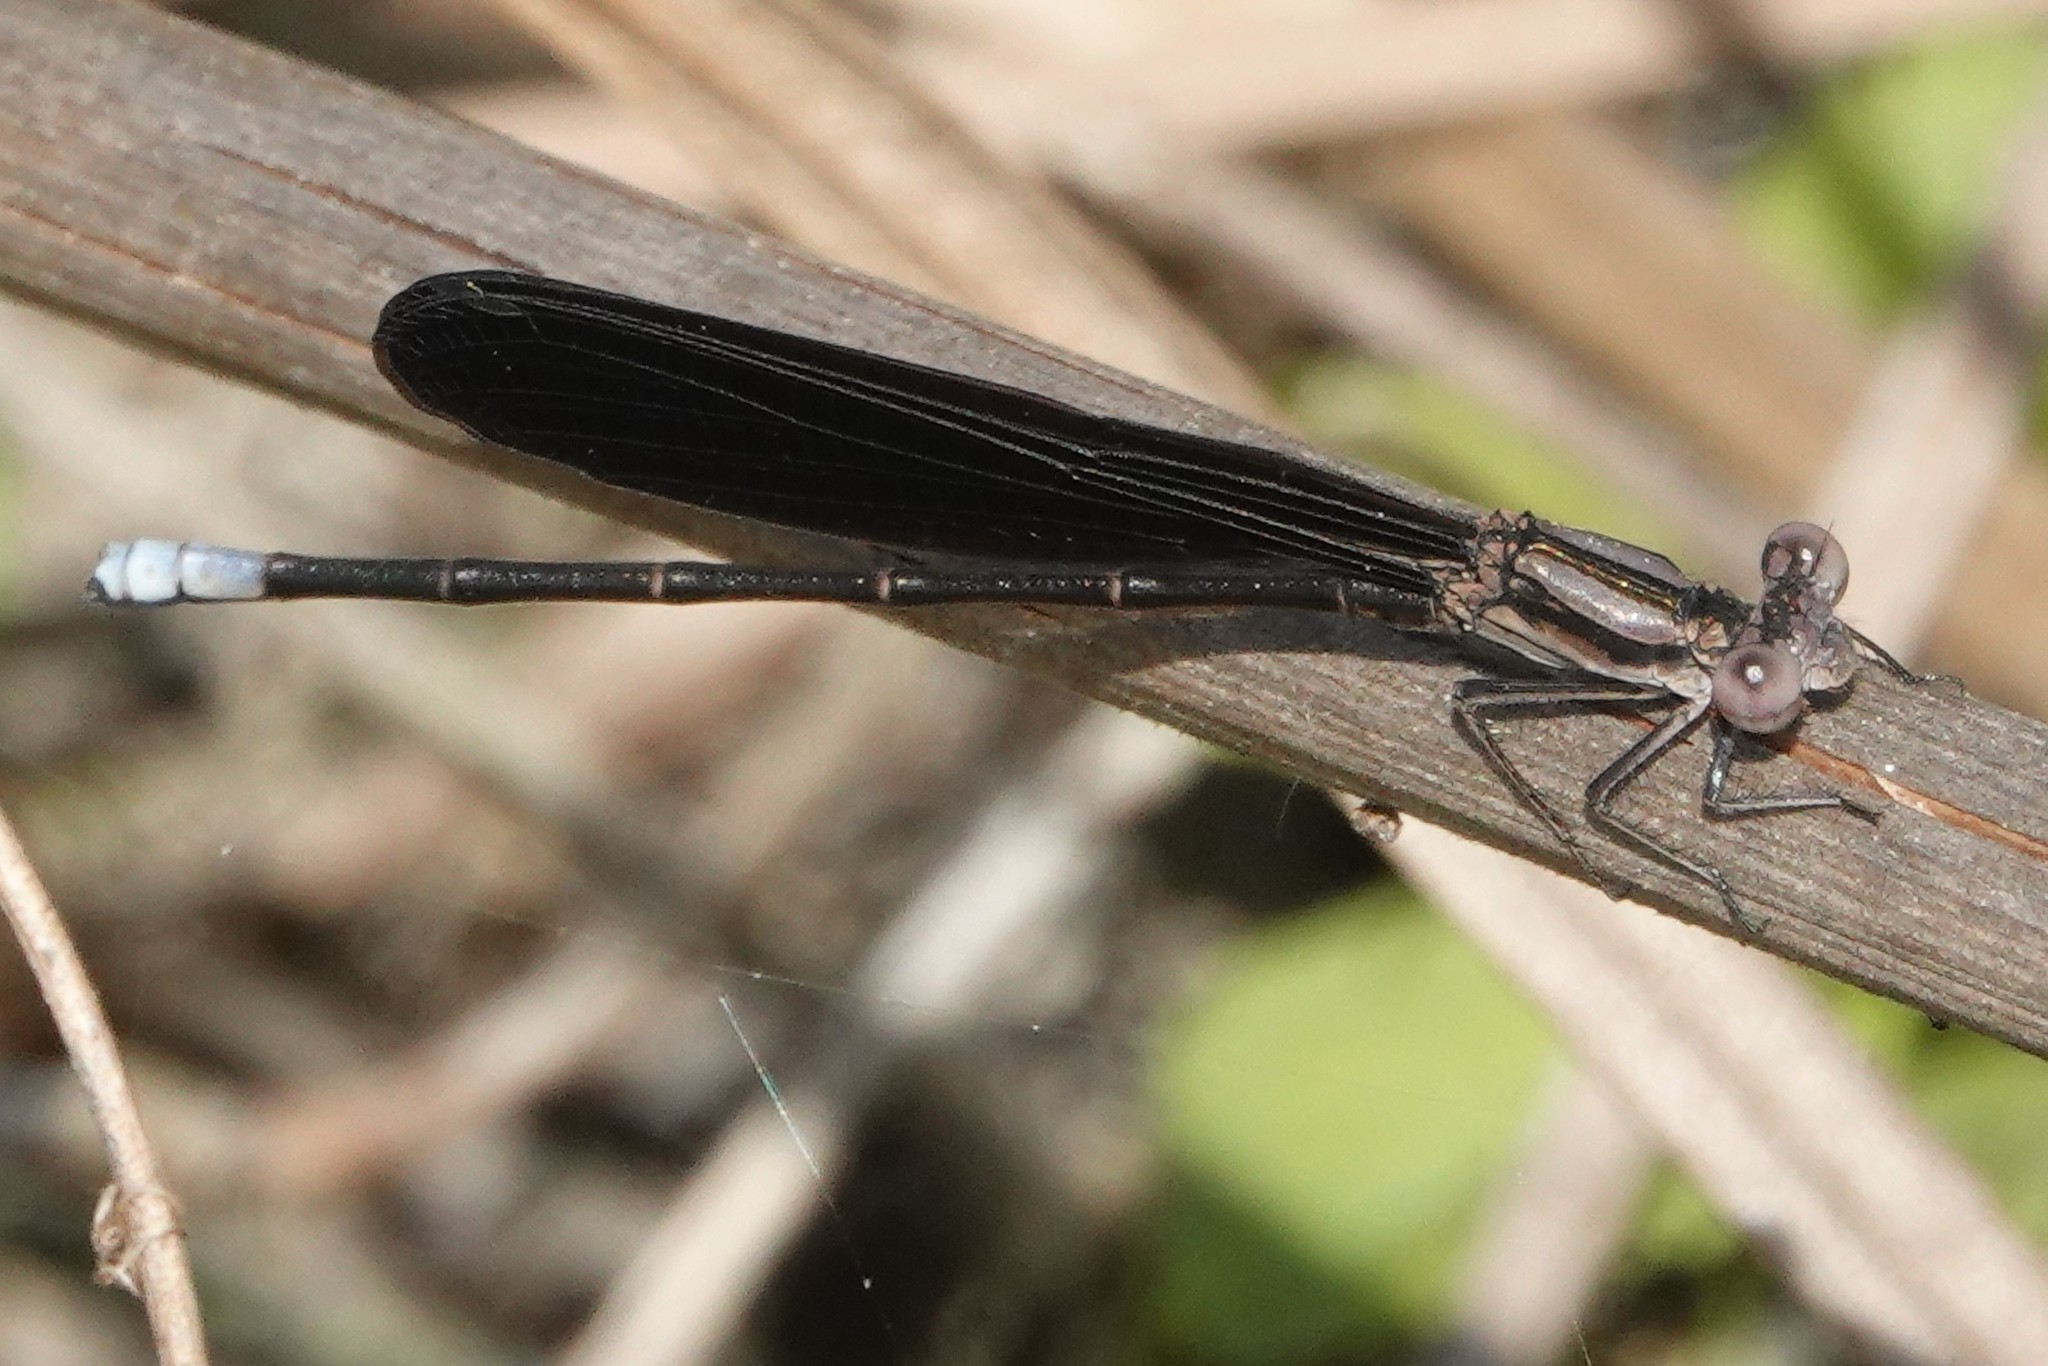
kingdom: Animalia
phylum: Arthropoda
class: Insecta
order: Odonata
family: Coenagrionidae
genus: Argia
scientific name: Argia fumipennis
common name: Variable dancer
